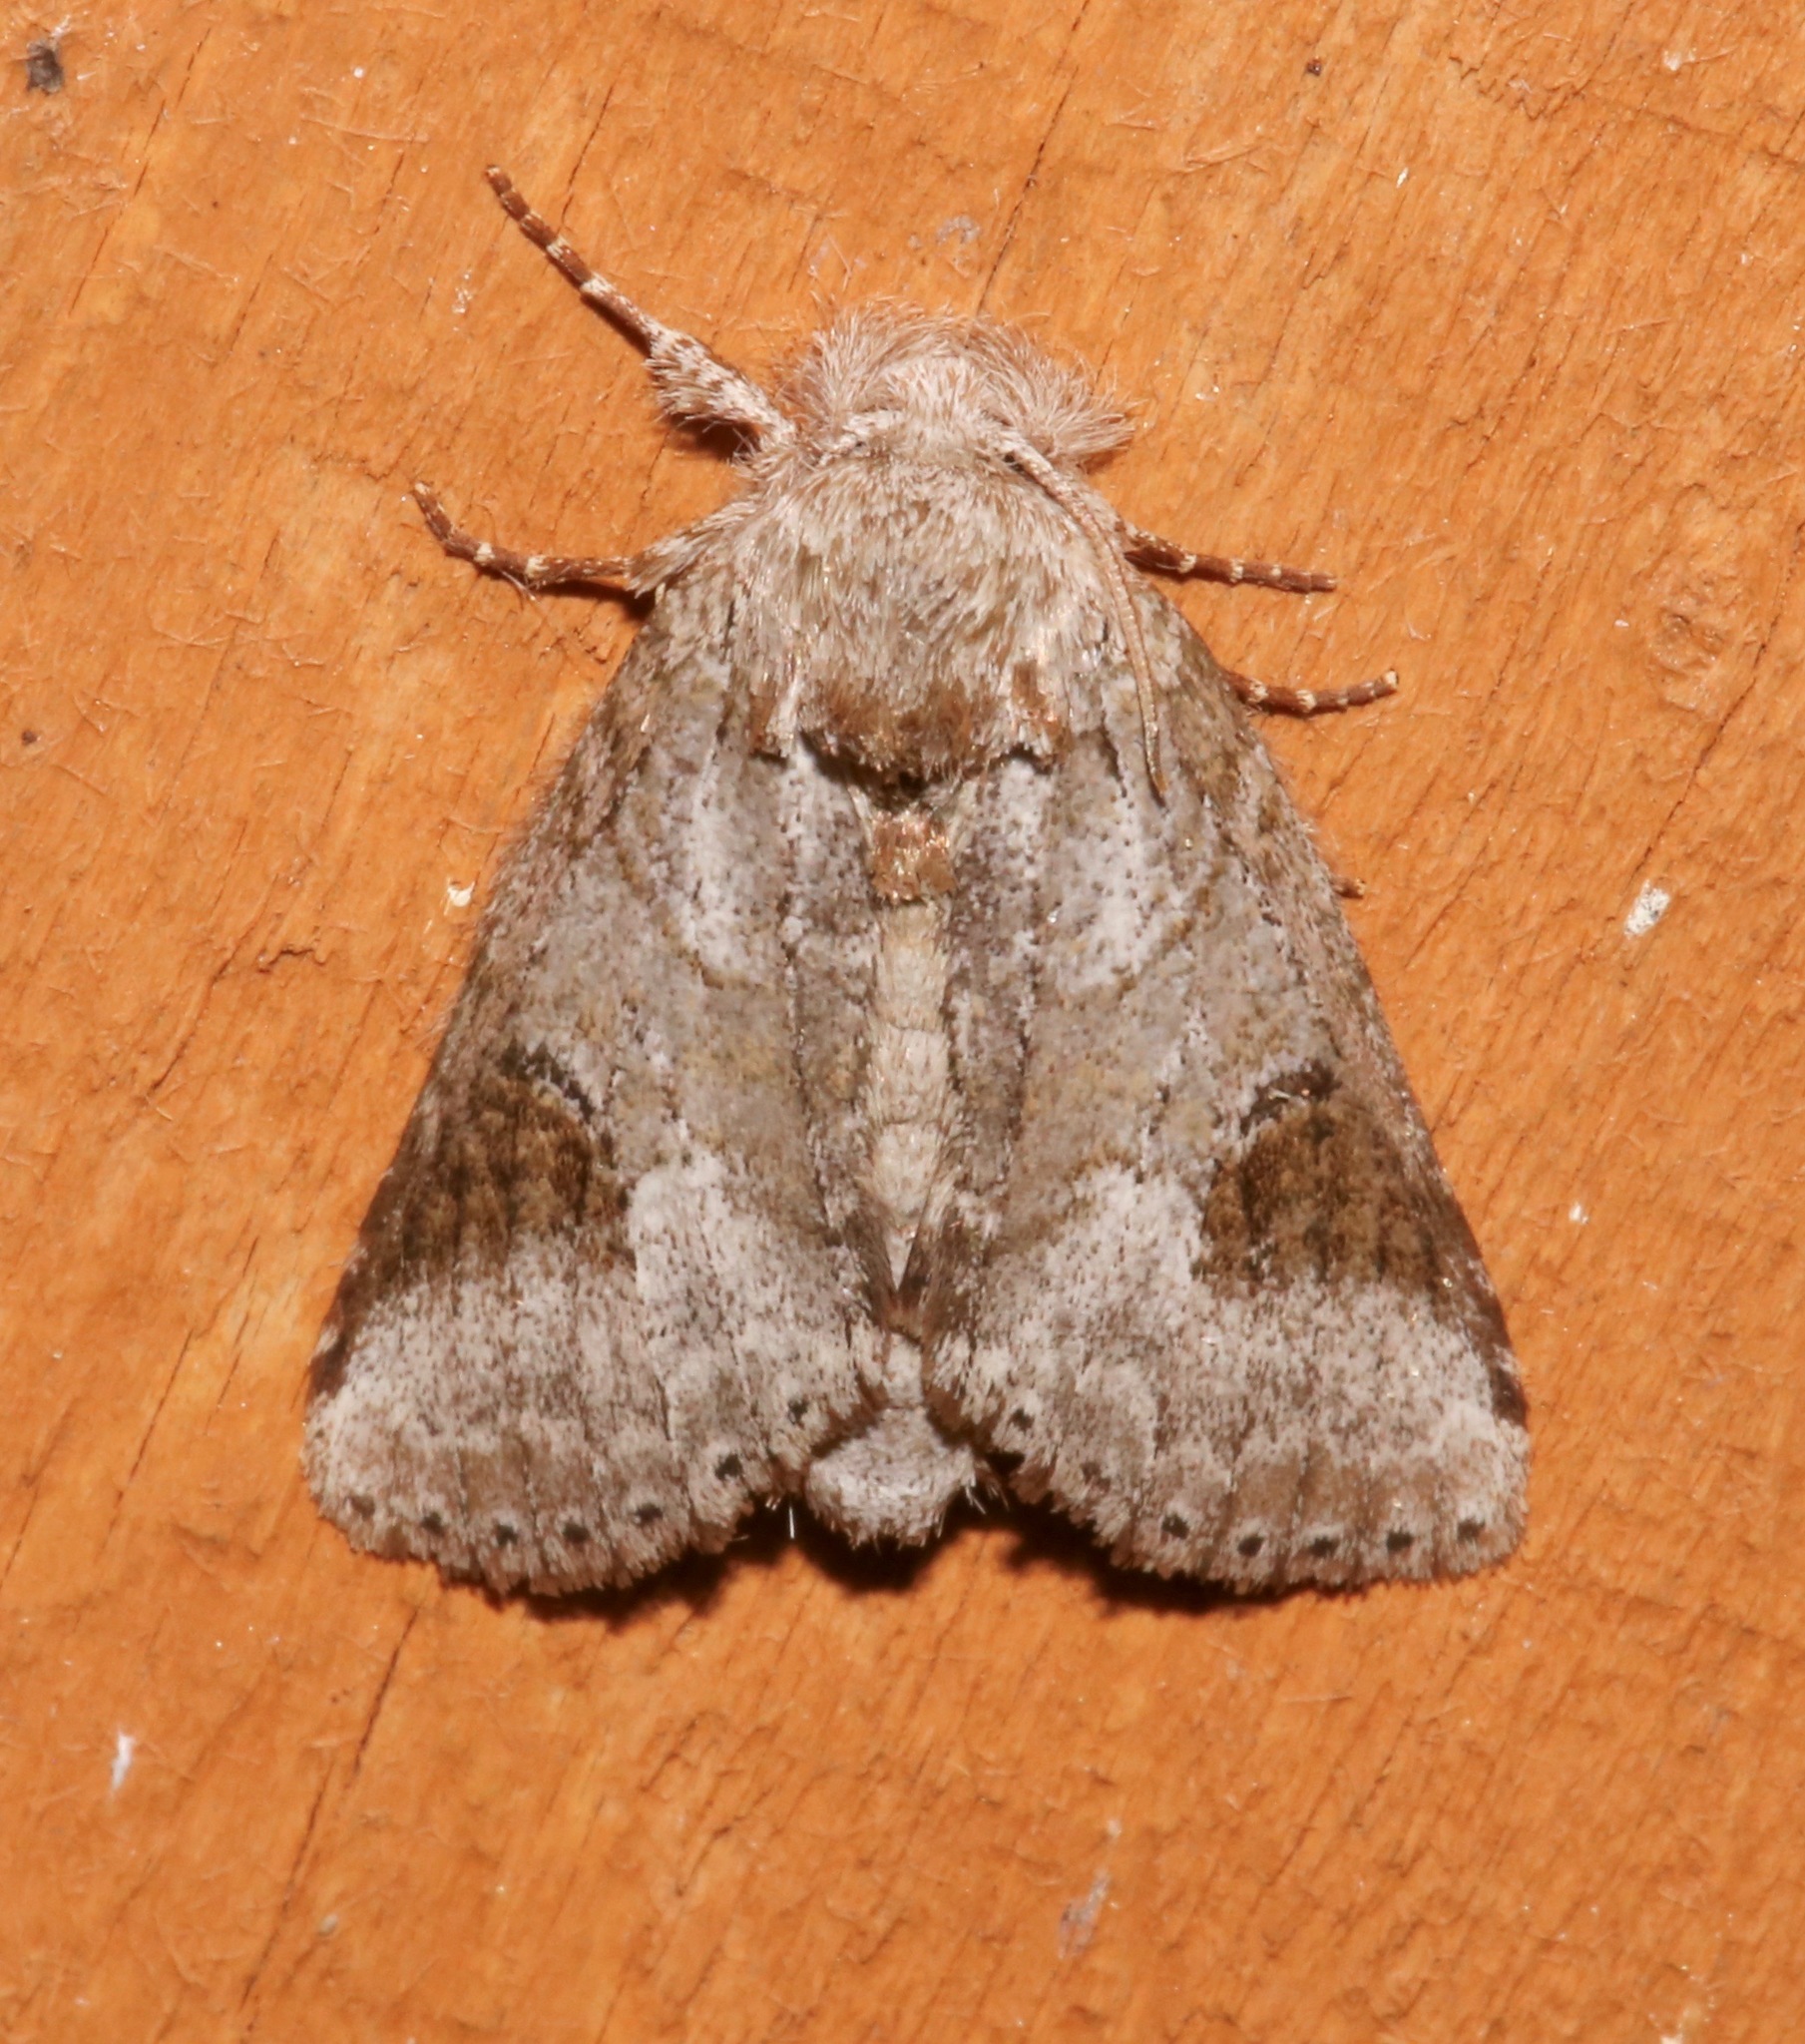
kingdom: Animalia
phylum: Arthropoda
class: Insecta
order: Lepidoptera
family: Notodontidae
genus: Lochmaeus
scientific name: Lochmaeus bilineata
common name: Double-lined prominent
